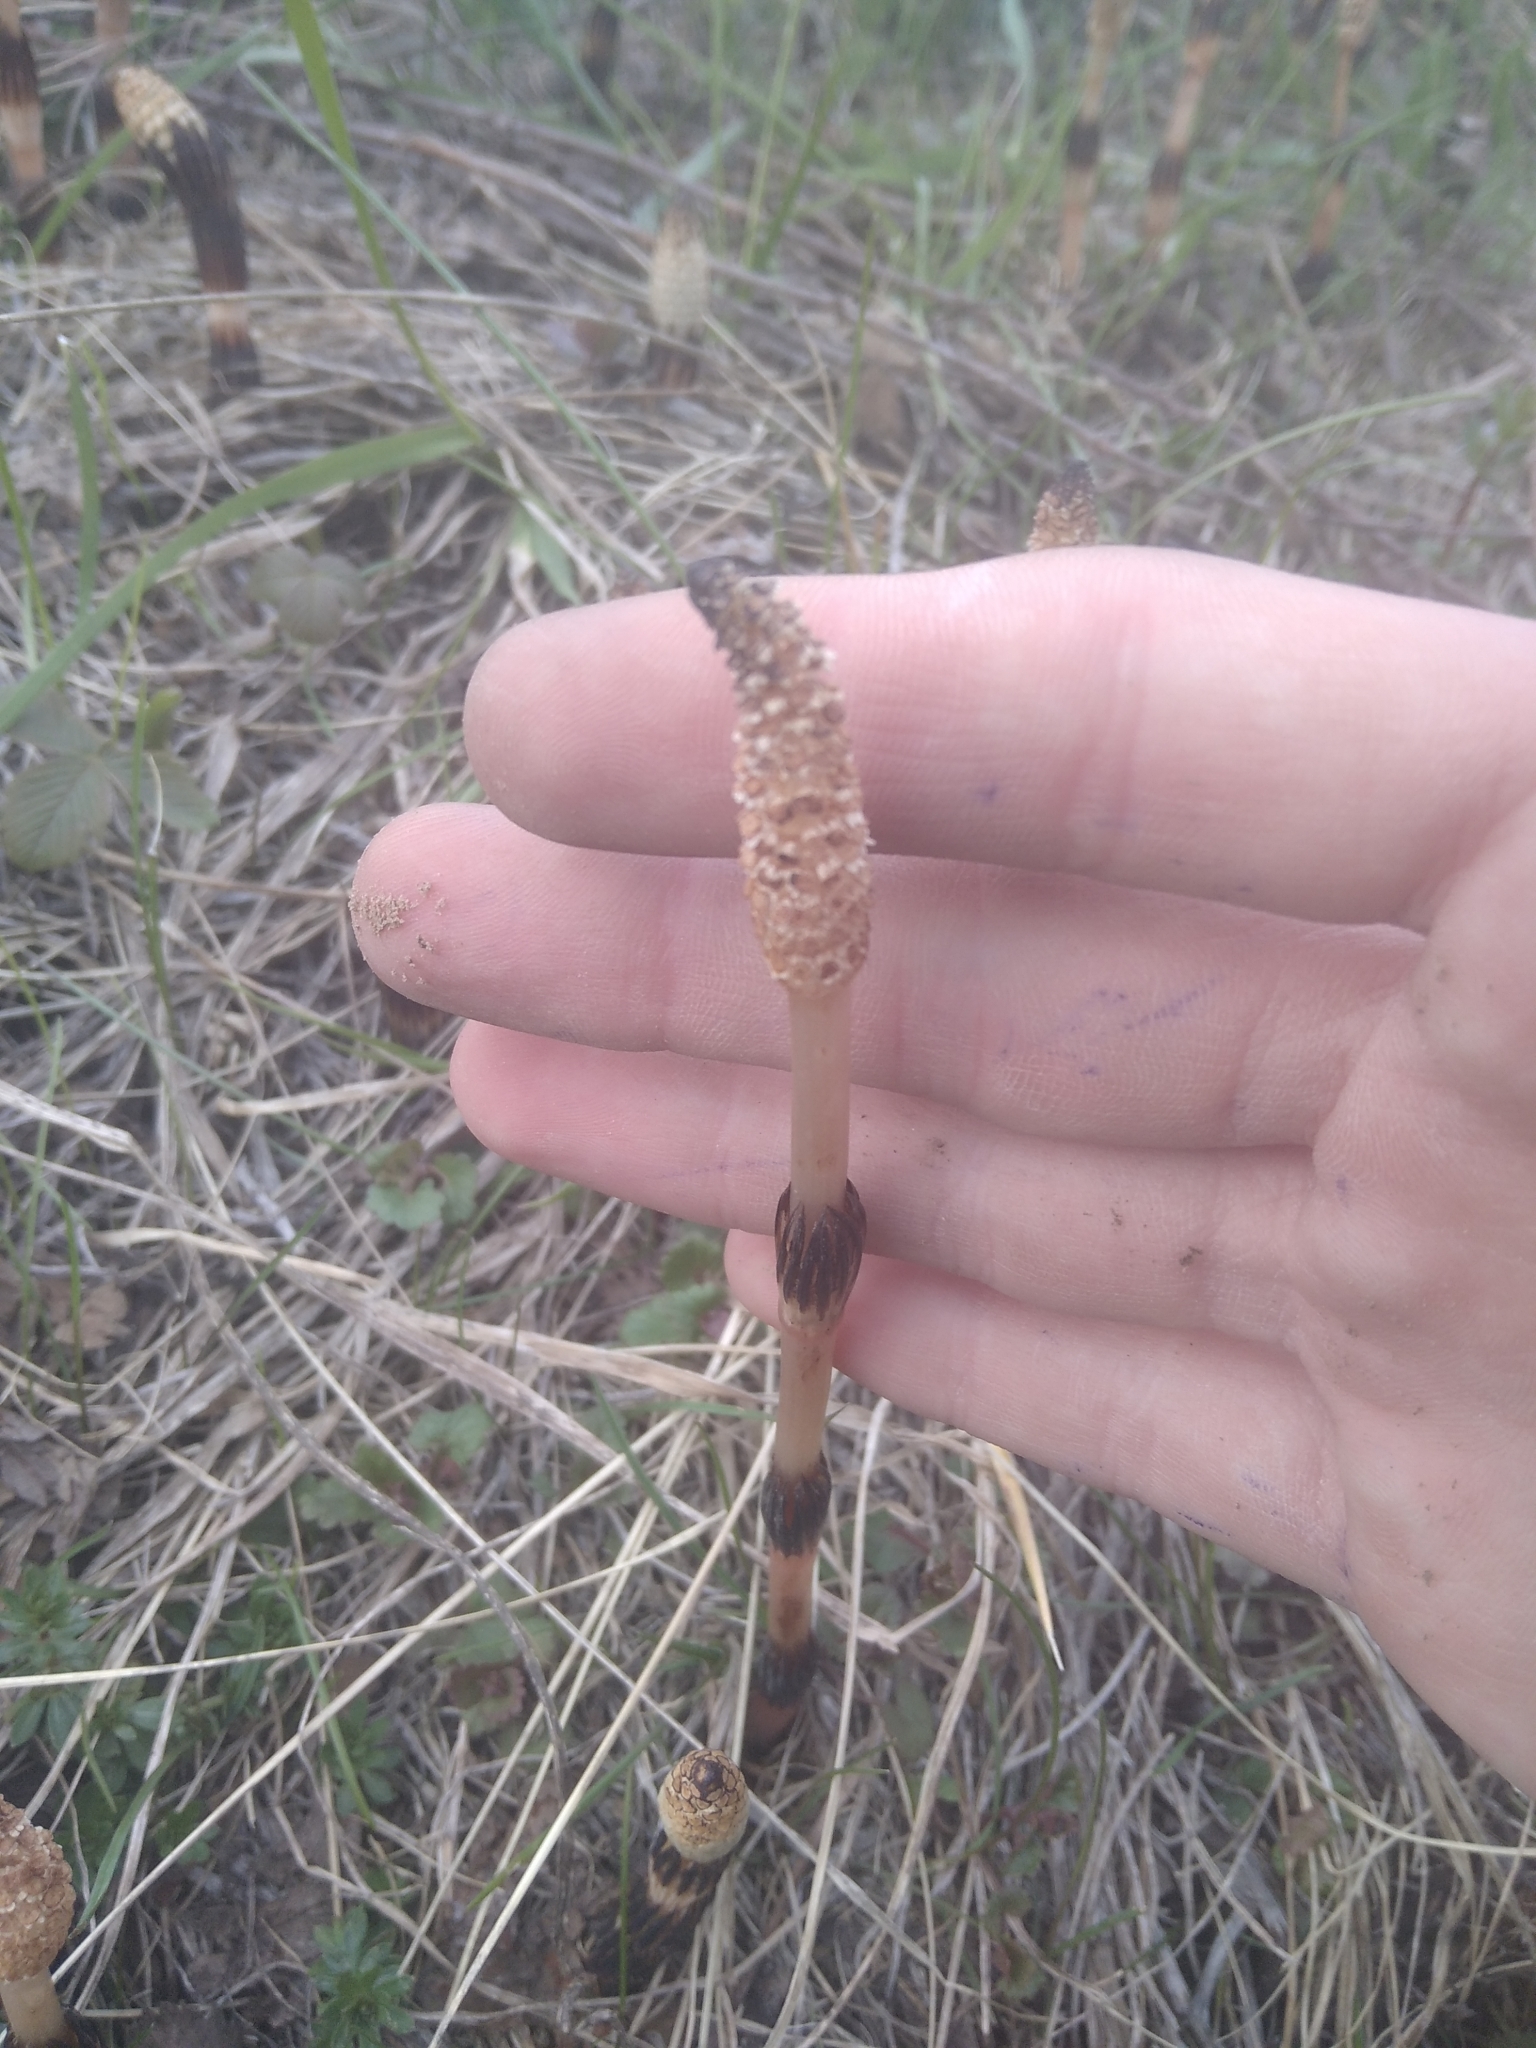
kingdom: Plantae
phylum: Tracheophyta
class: Polypodiopsida
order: Equisetales
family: Equisetaceae
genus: Equisetum
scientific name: Equisetum arvense
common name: Field horsetail
